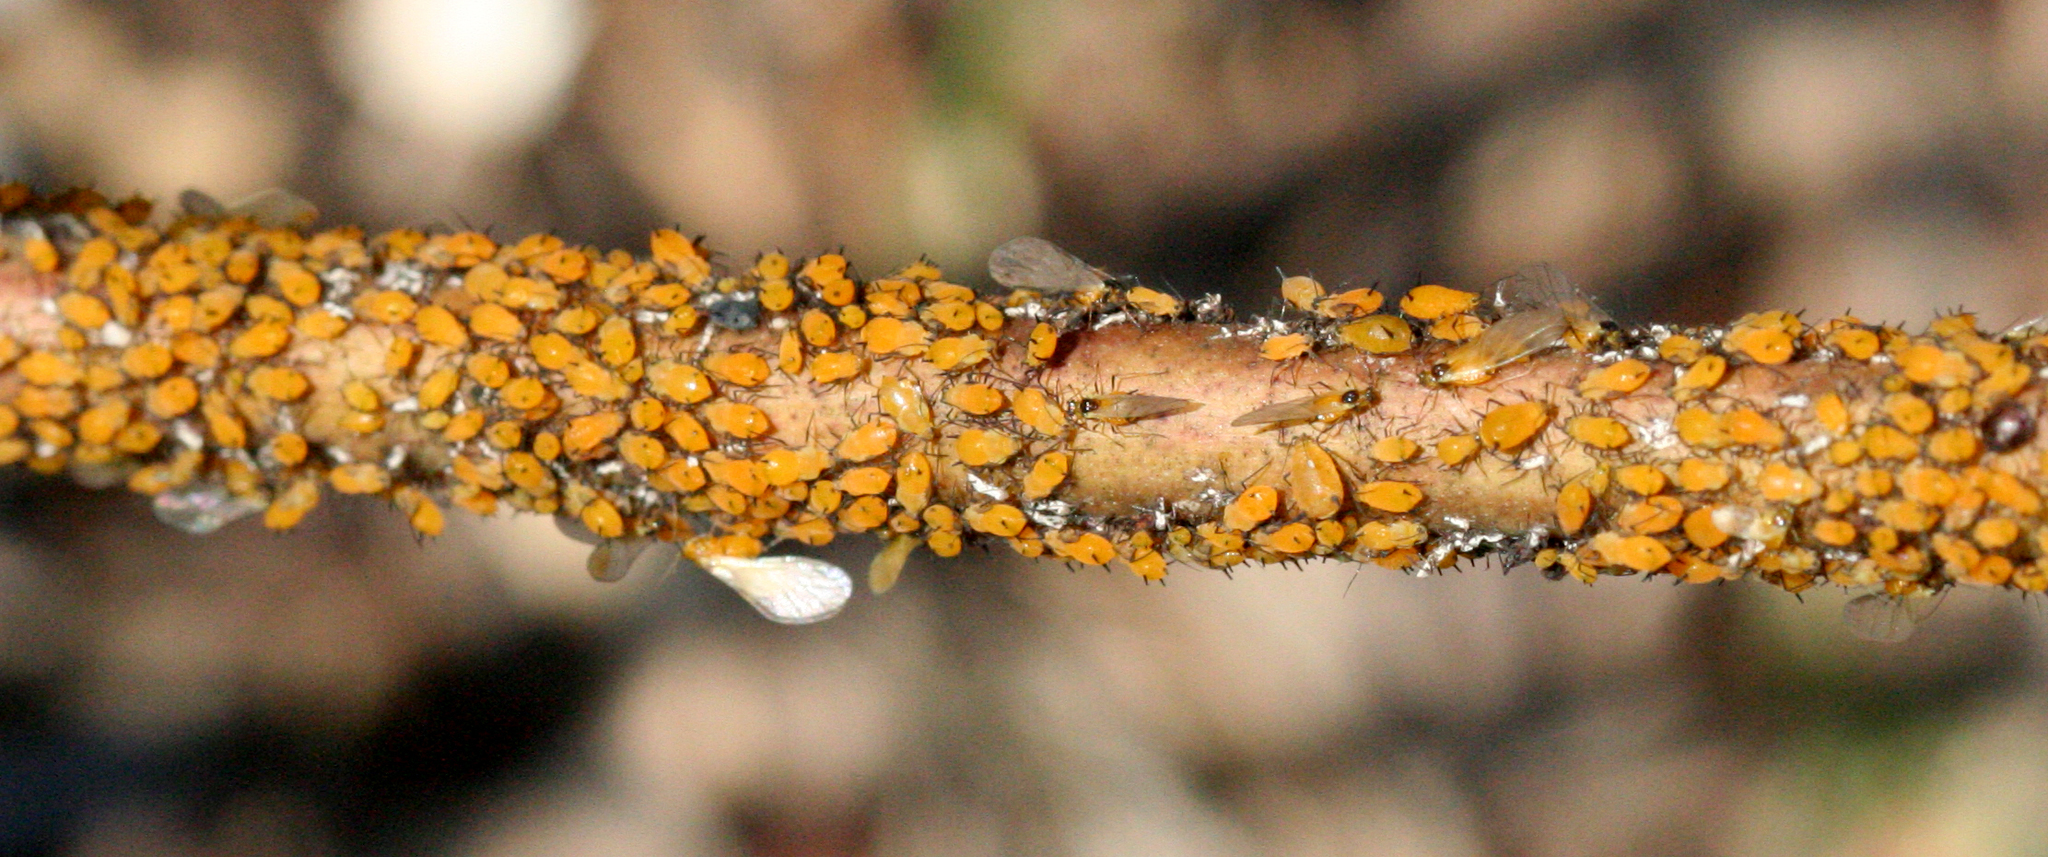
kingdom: Animalia
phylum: Arthropoda
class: Insecta
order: Hemiptera
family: Aphididae
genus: Aphis
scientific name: Aphis nerii
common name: Oleander aphid
